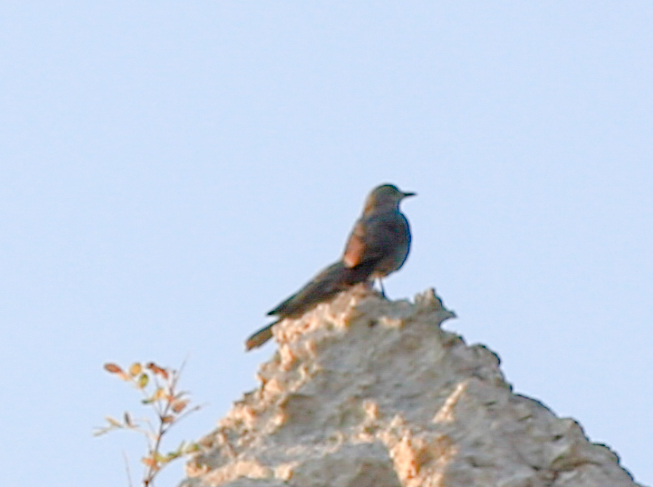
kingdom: Animalia
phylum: Chordata
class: Aves
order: Passeriformes
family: Muscicapidae
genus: Monticola
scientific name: Monticola solitarius
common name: Blue rock thrush
